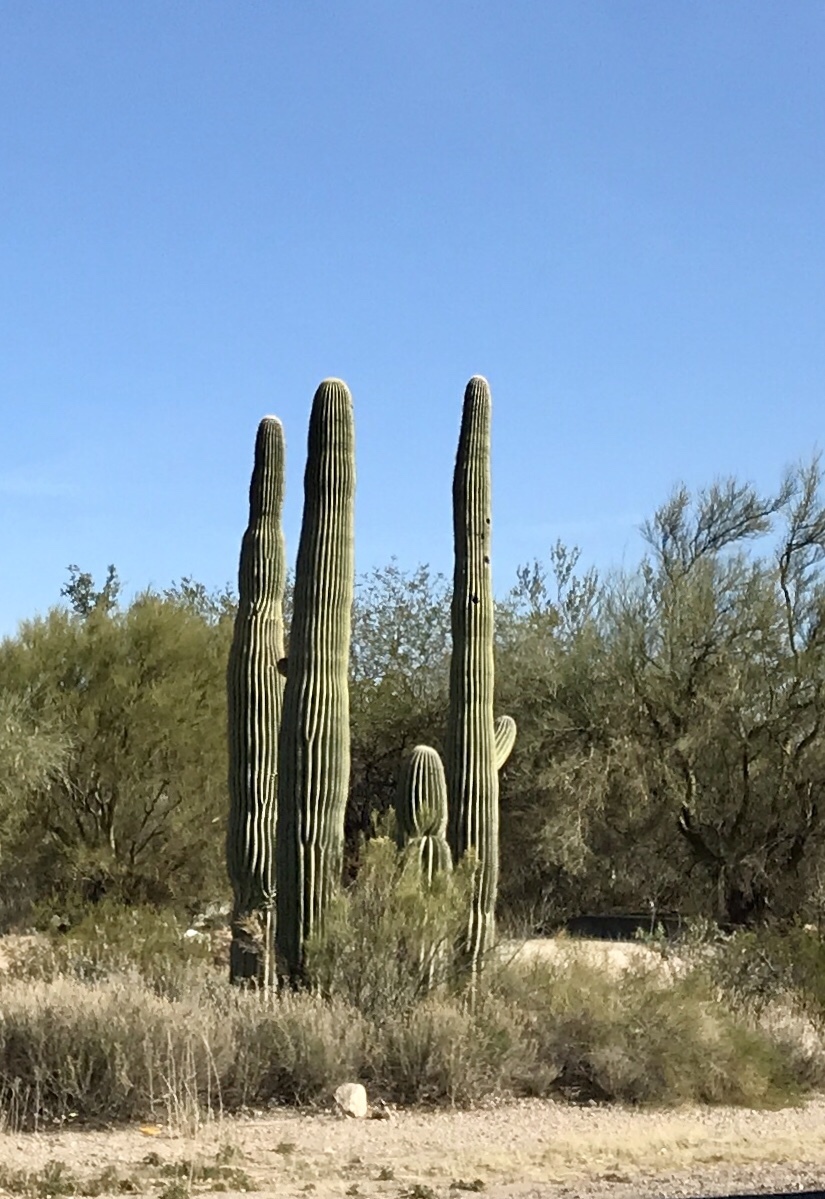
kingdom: Plantae
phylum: Tracheophyta
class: Magnoliopsida
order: Caryophyllales
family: Cactaceae
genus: Carnegiea
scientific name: Carnegiea gigantea
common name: Saguaro
